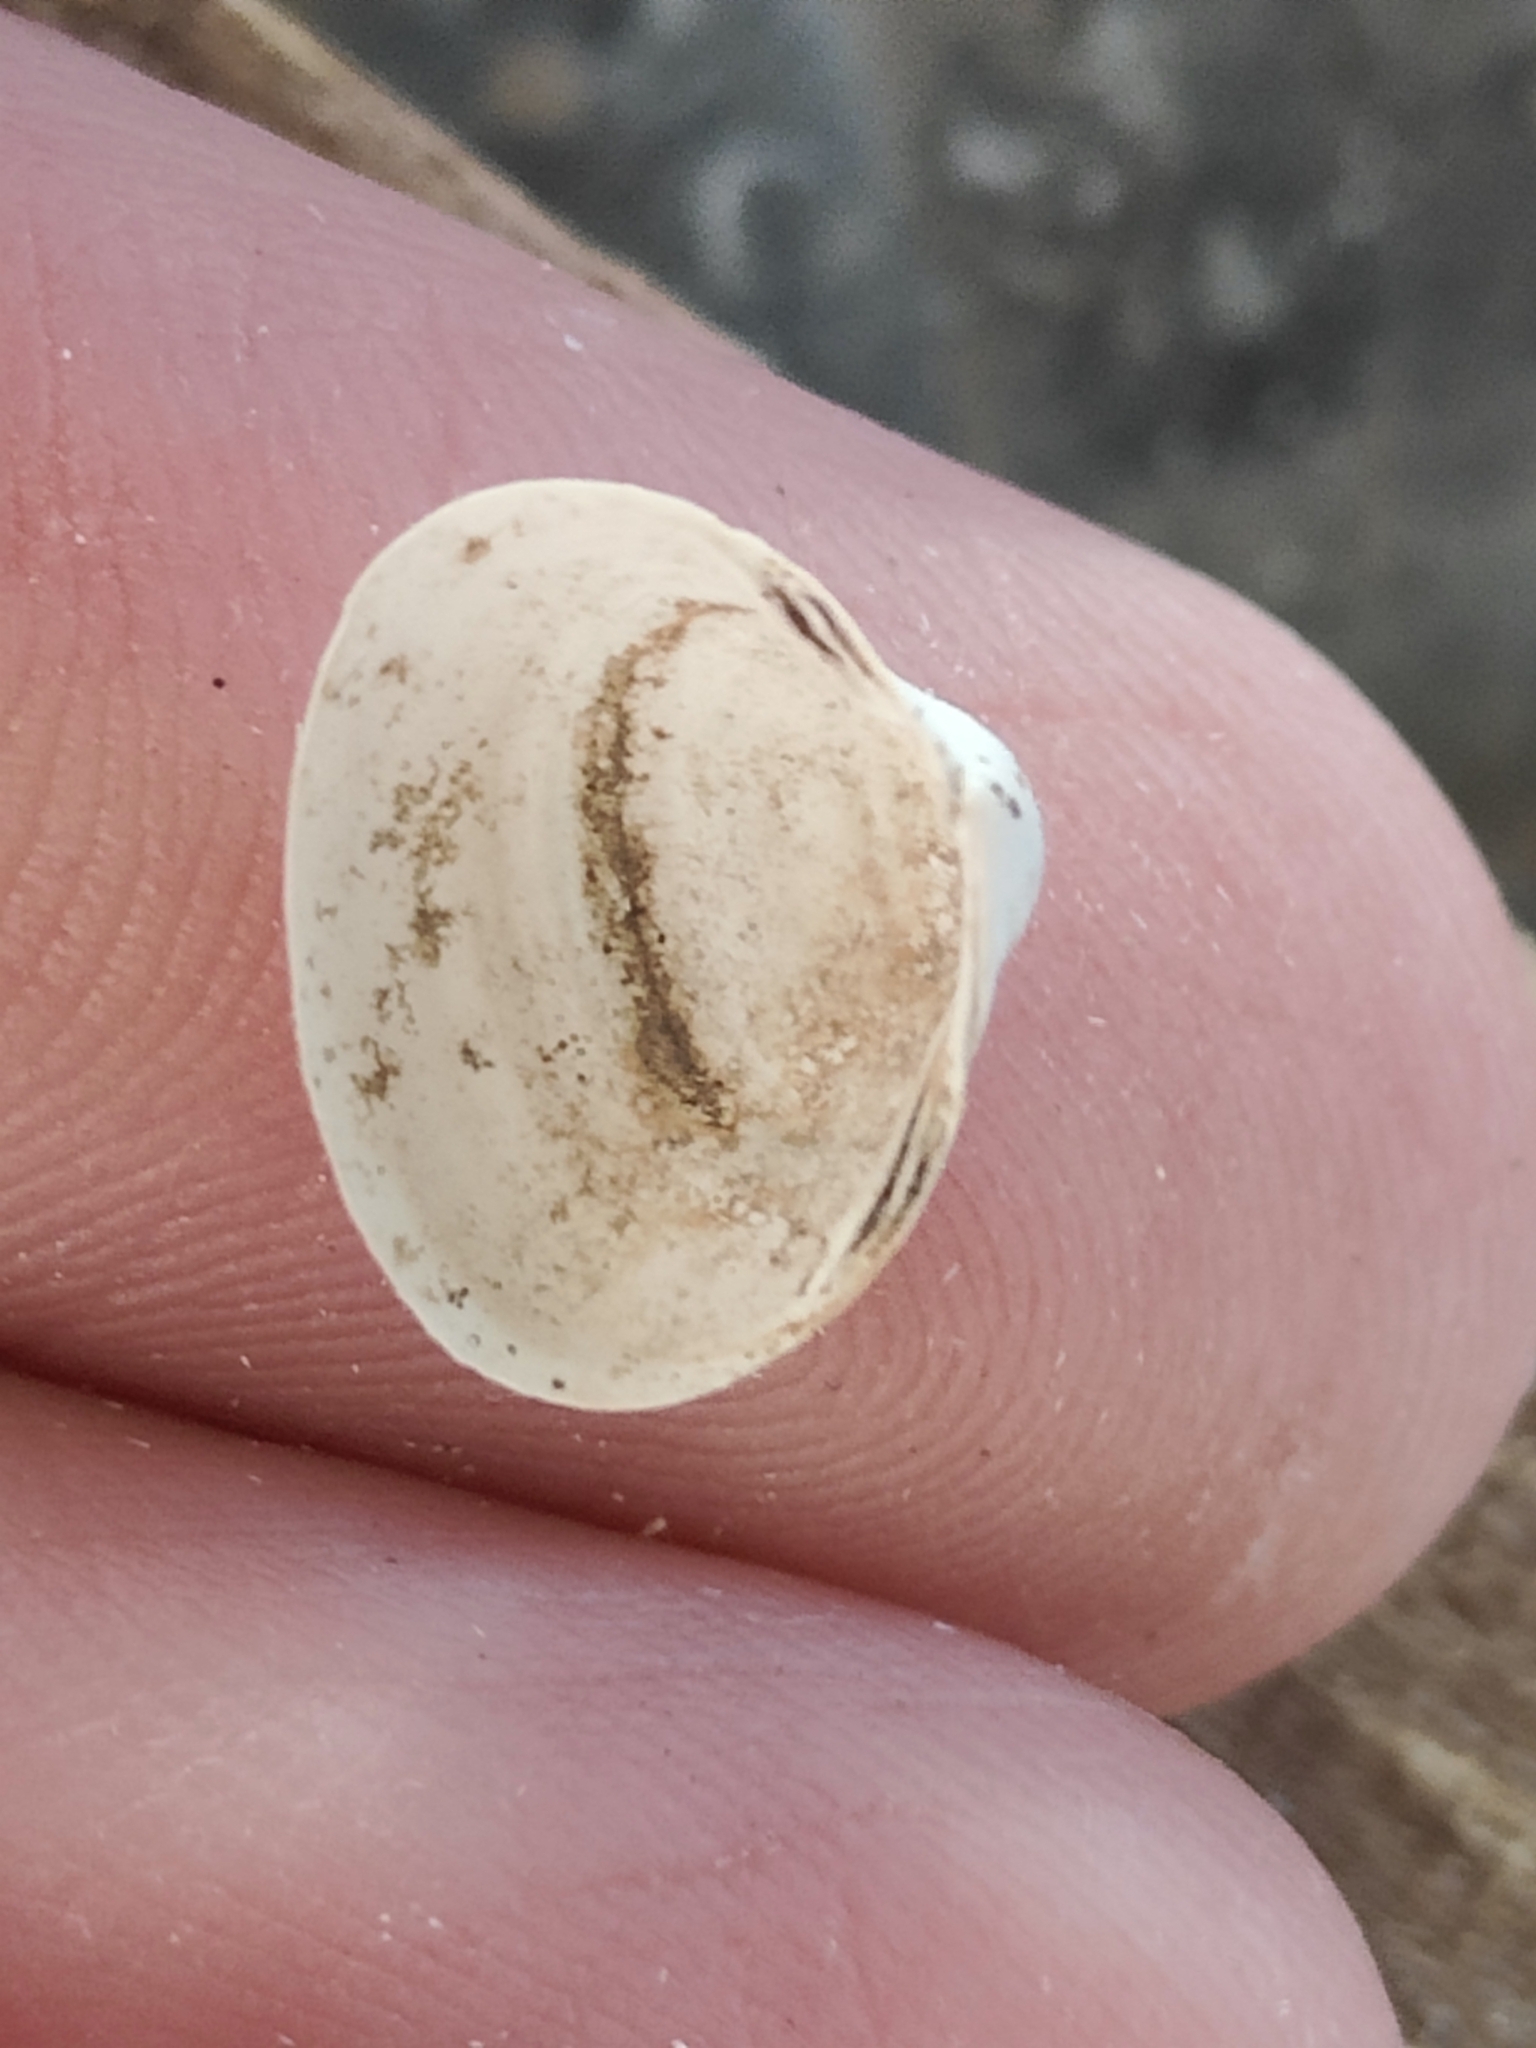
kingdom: Animalia
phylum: Mollusca
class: Bivalvia
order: Sphaeriida
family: Sphaeriidae
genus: Sphaerium
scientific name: Sphaerium striatinum
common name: Striated fingernailclam
